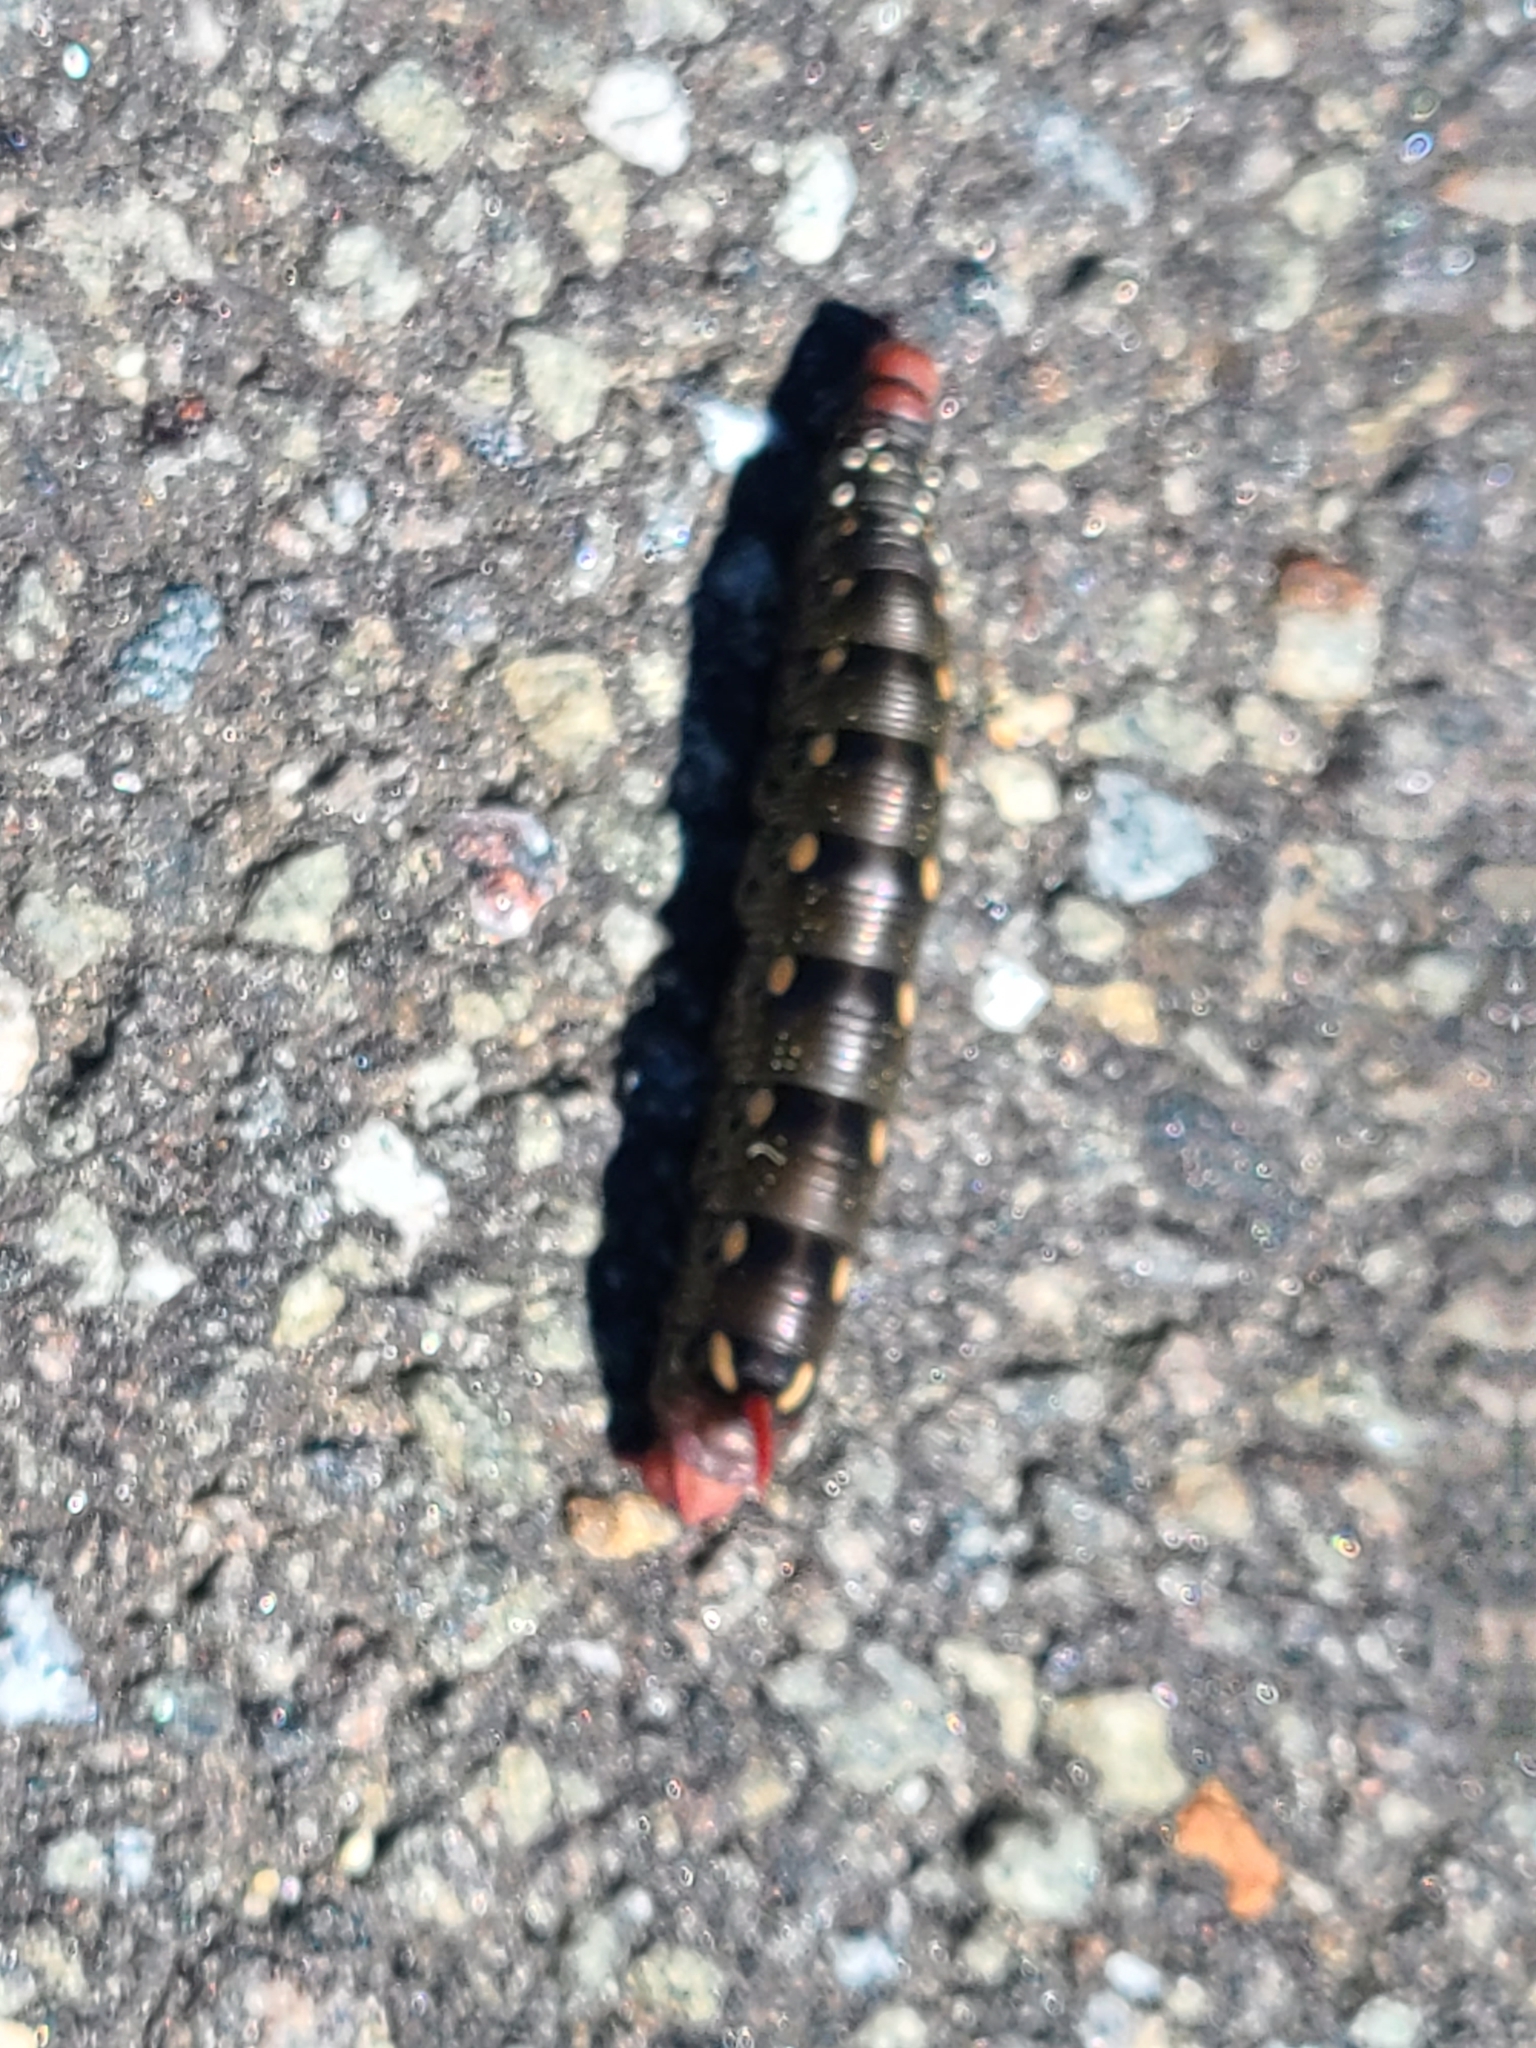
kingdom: Animalia
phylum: Arthropoda
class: Insecta
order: Lepidoptera
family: Sphingidae
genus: Hyles
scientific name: Hyles gallii
